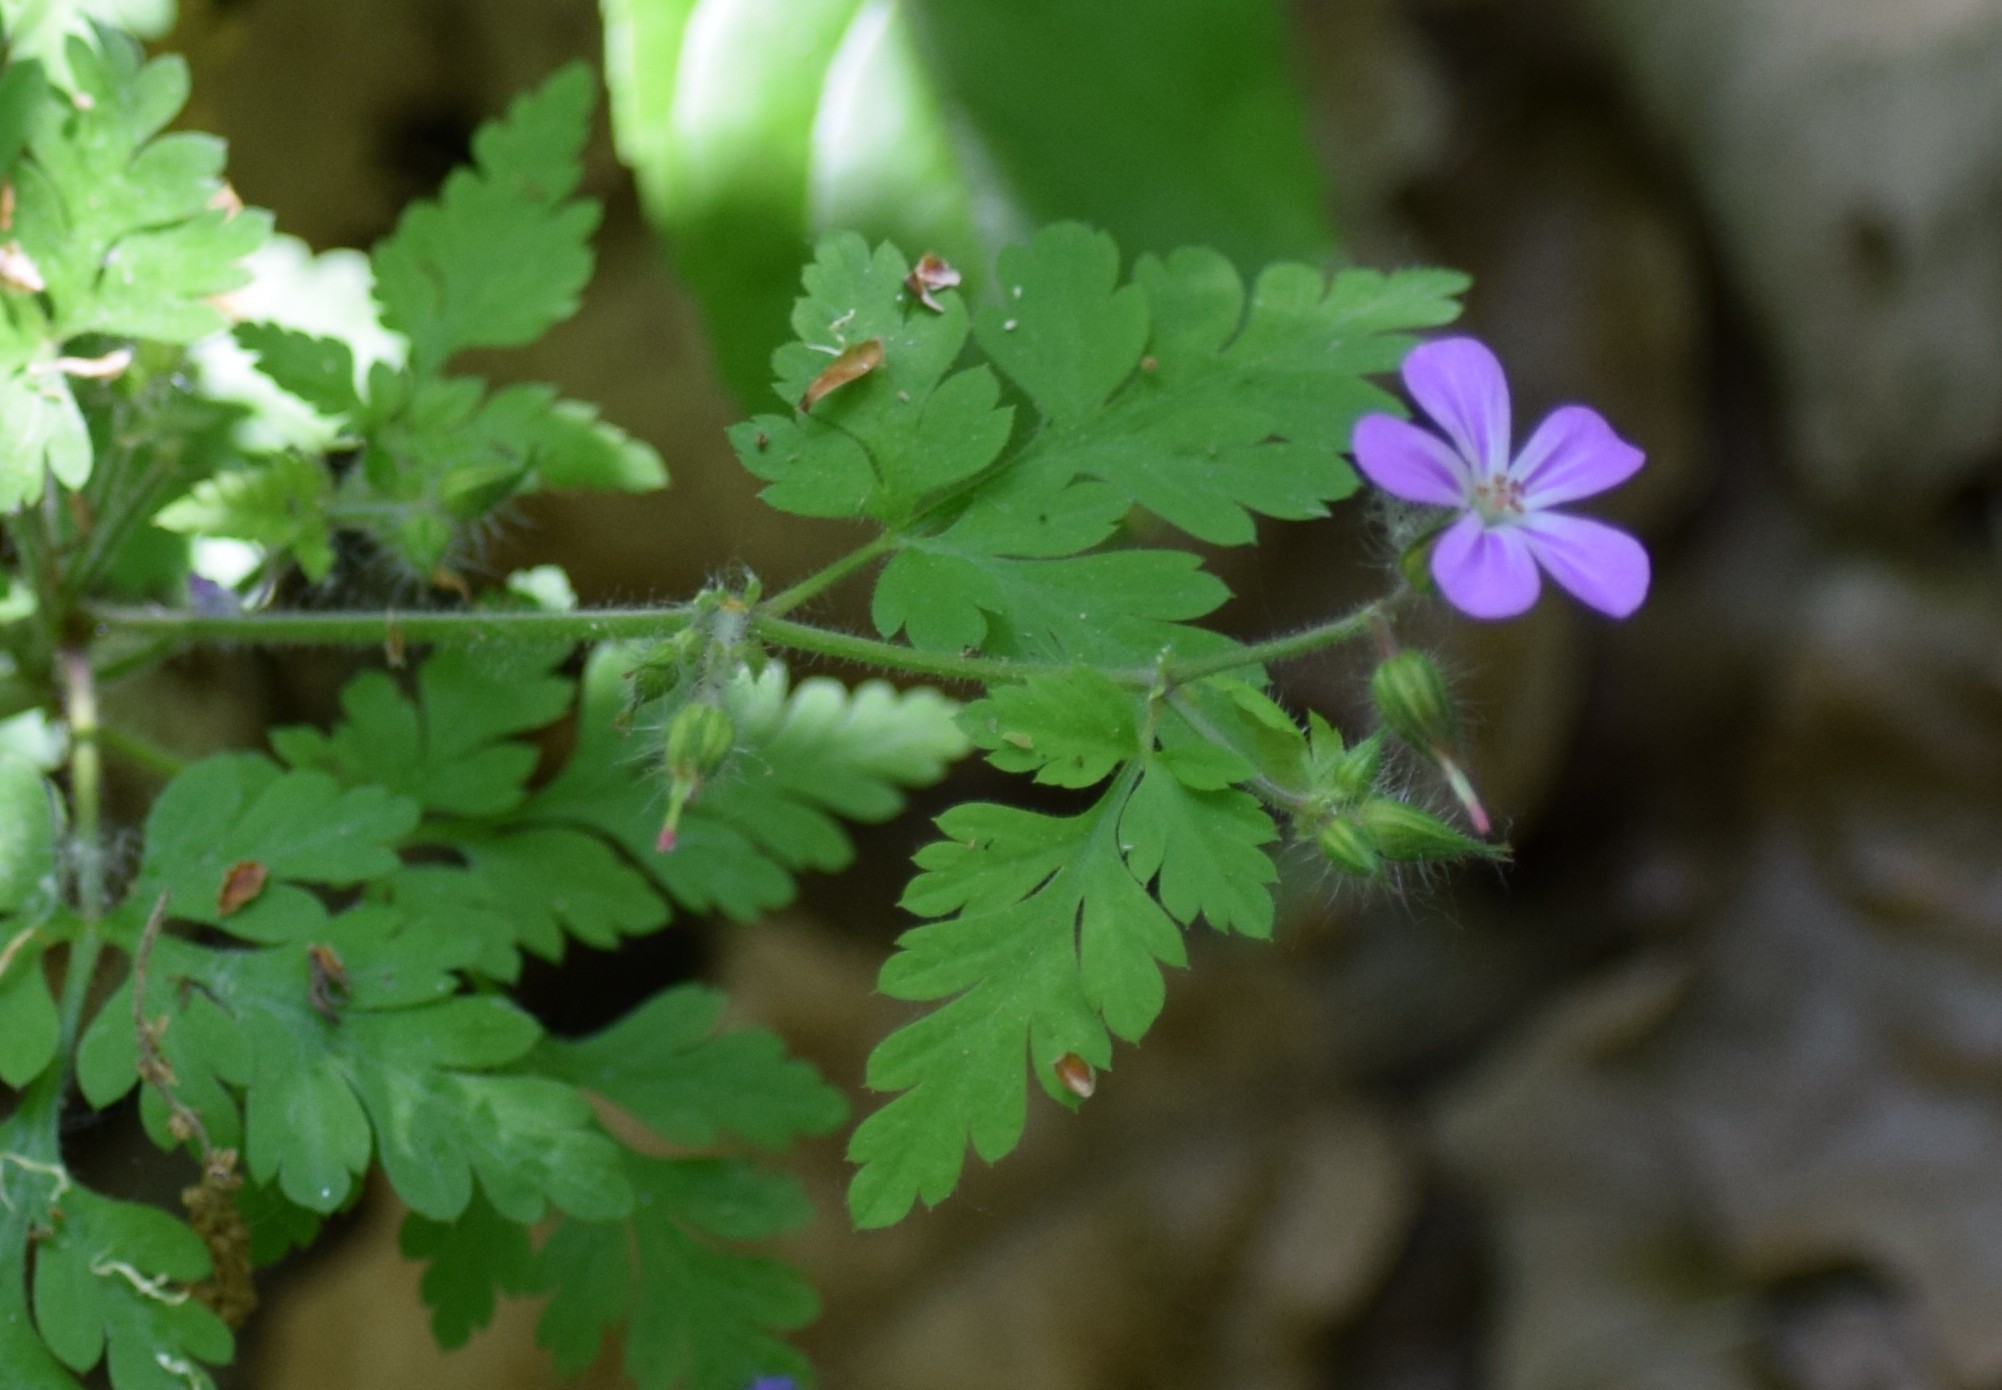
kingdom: Plantae
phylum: Tracheophyta
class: Magnoliopsida
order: Geraniales
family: Geraniaceae
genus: Geranium
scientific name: Geranium robertianum
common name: Herb-robert
